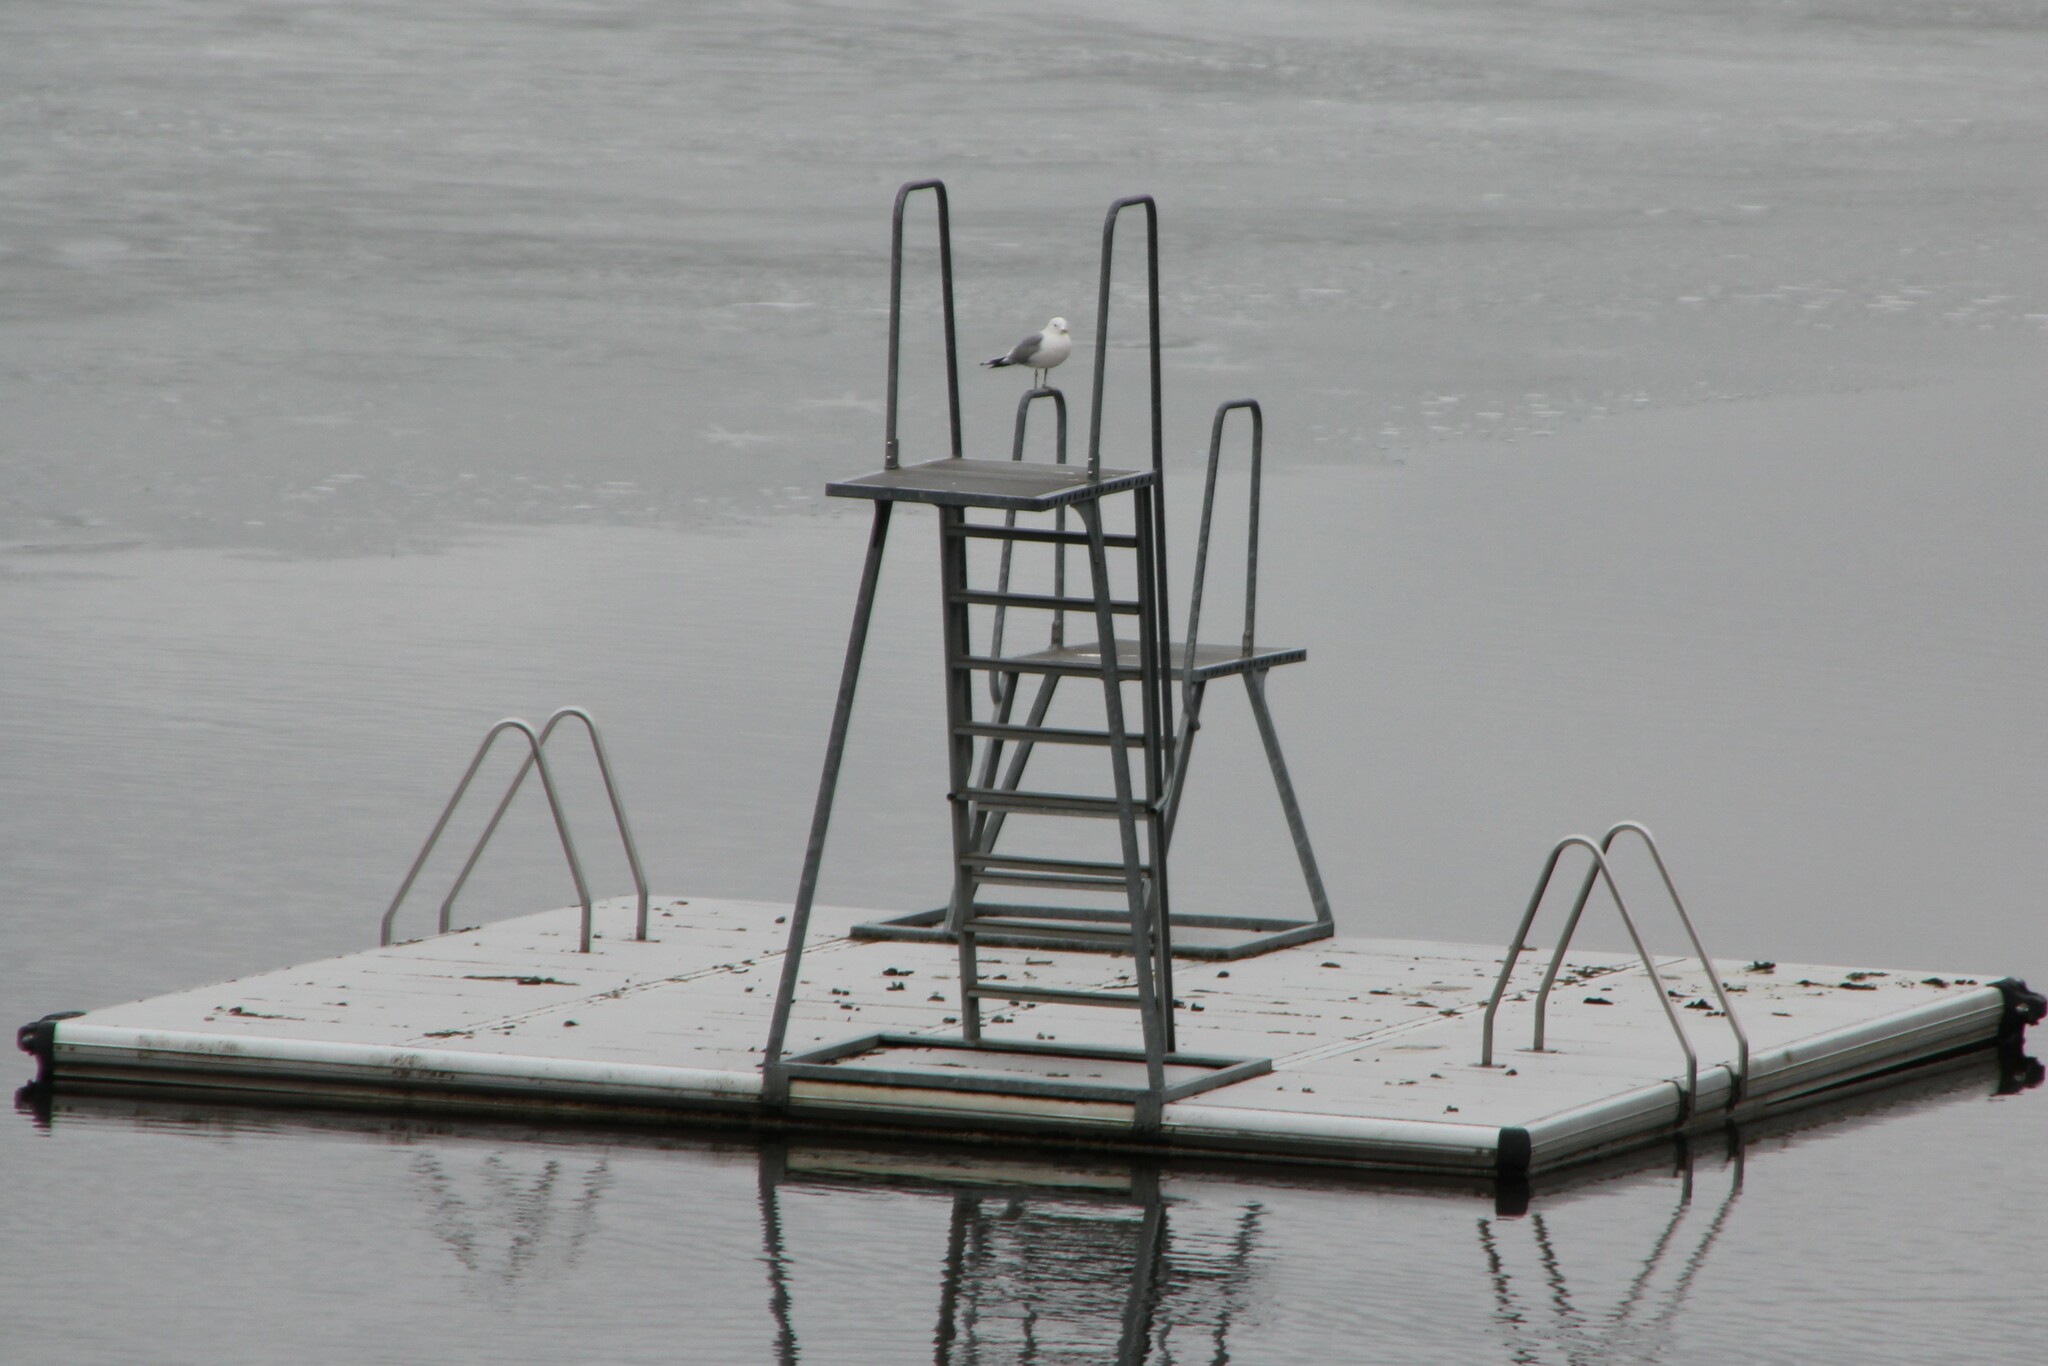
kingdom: Animalia
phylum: Chordata
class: Aves
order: Charadriiformes
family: Laridae
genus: Larus
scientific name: Larus canus
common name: Mew gull
